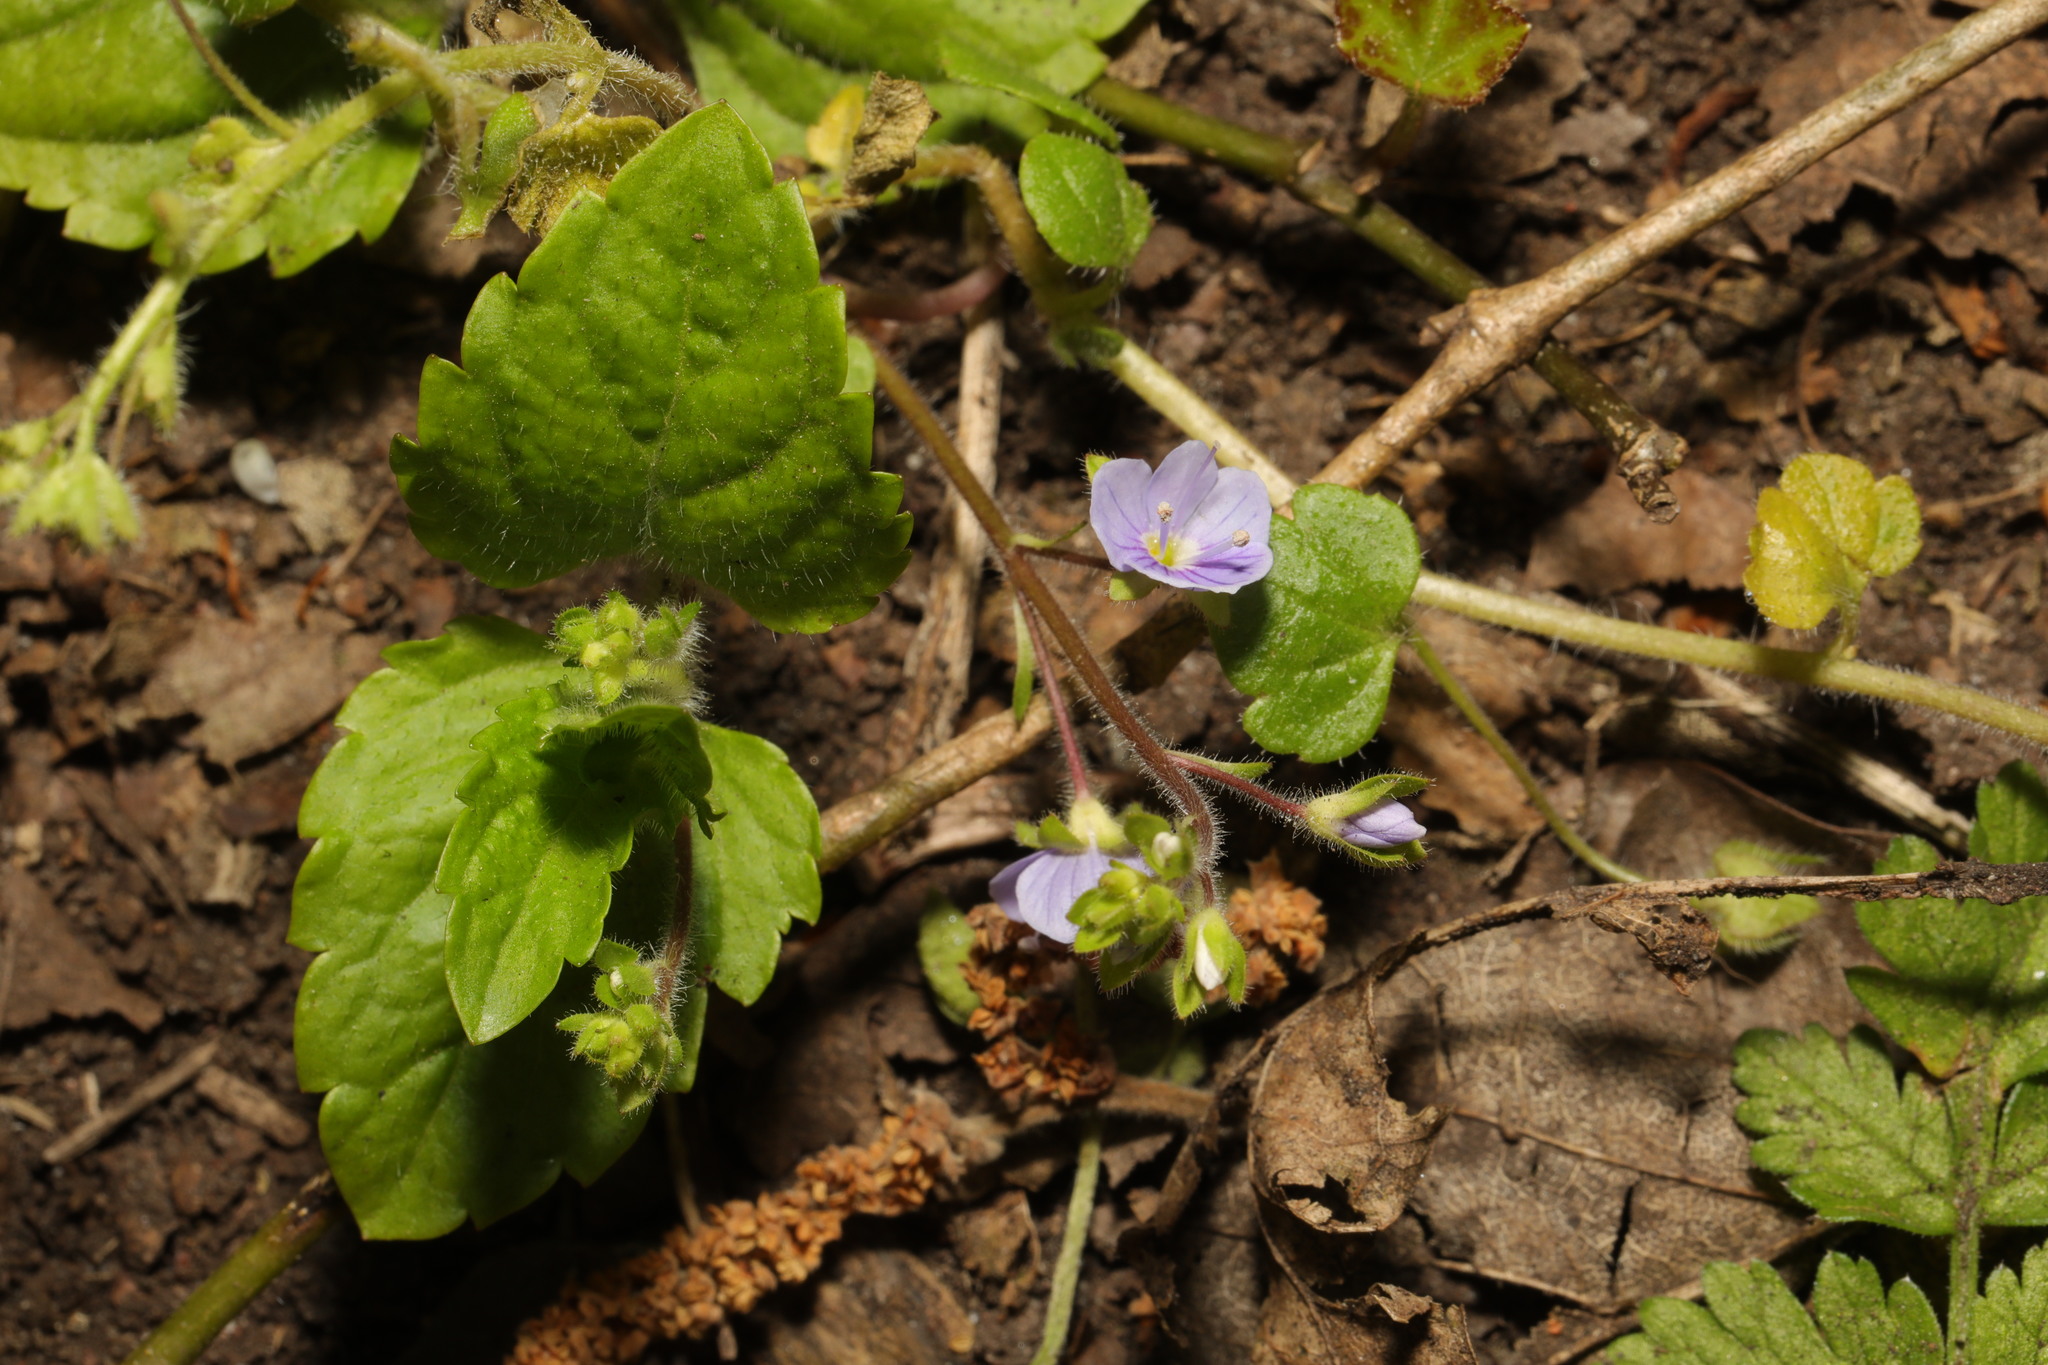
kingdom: Plantae
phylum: Tracheophyta
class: Magnoliopsida
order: Lamiales
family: Plantaginaceae
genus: Veronica
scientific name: Veronica montana
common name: Wood speedwell
